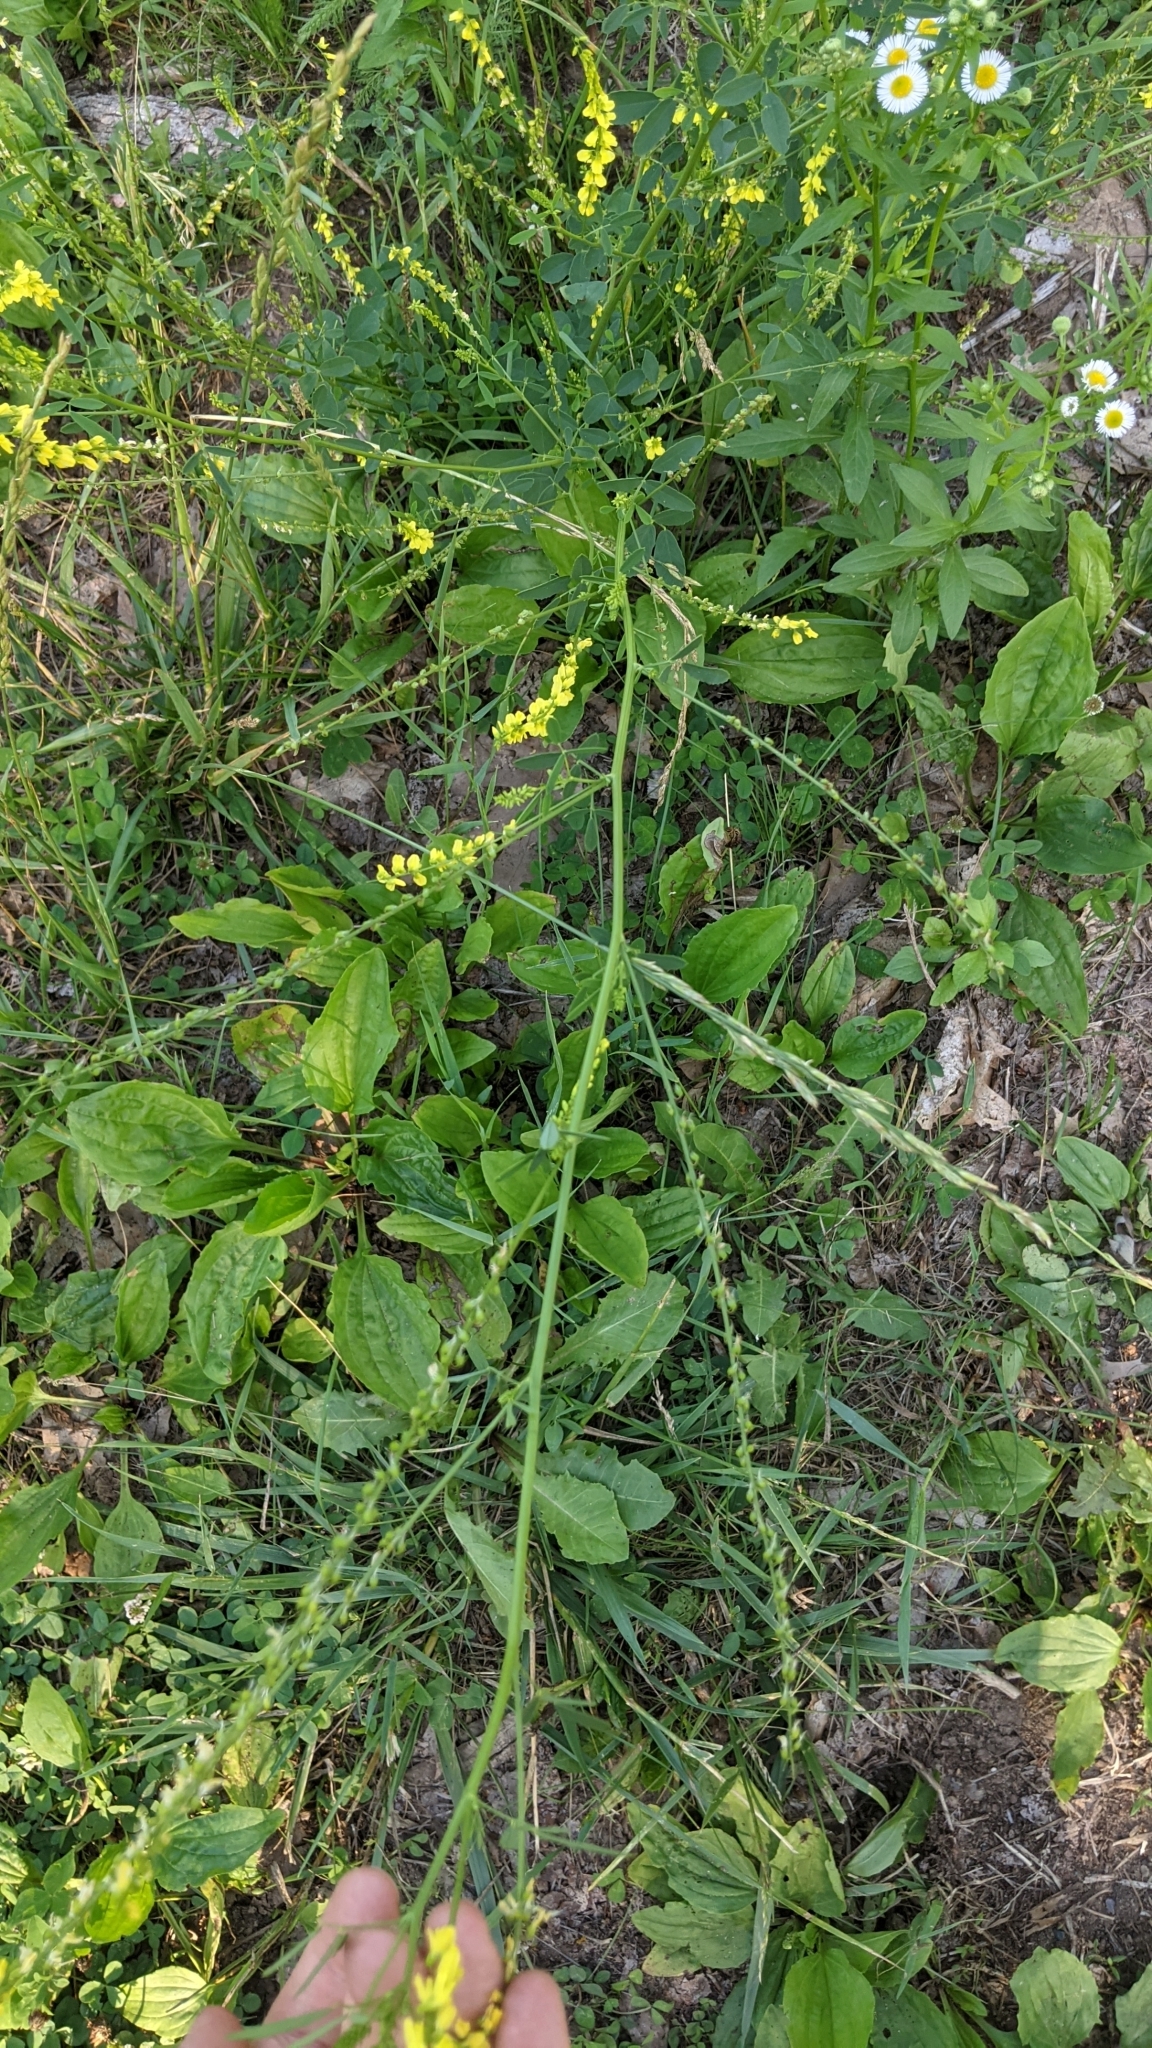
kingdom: Plantae
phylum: Tracheophyta
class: Magnoliopsida
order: Fabales
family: Fabaceae
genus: Melilotus
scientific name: Melilotus officinalis
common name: Sweetclover
